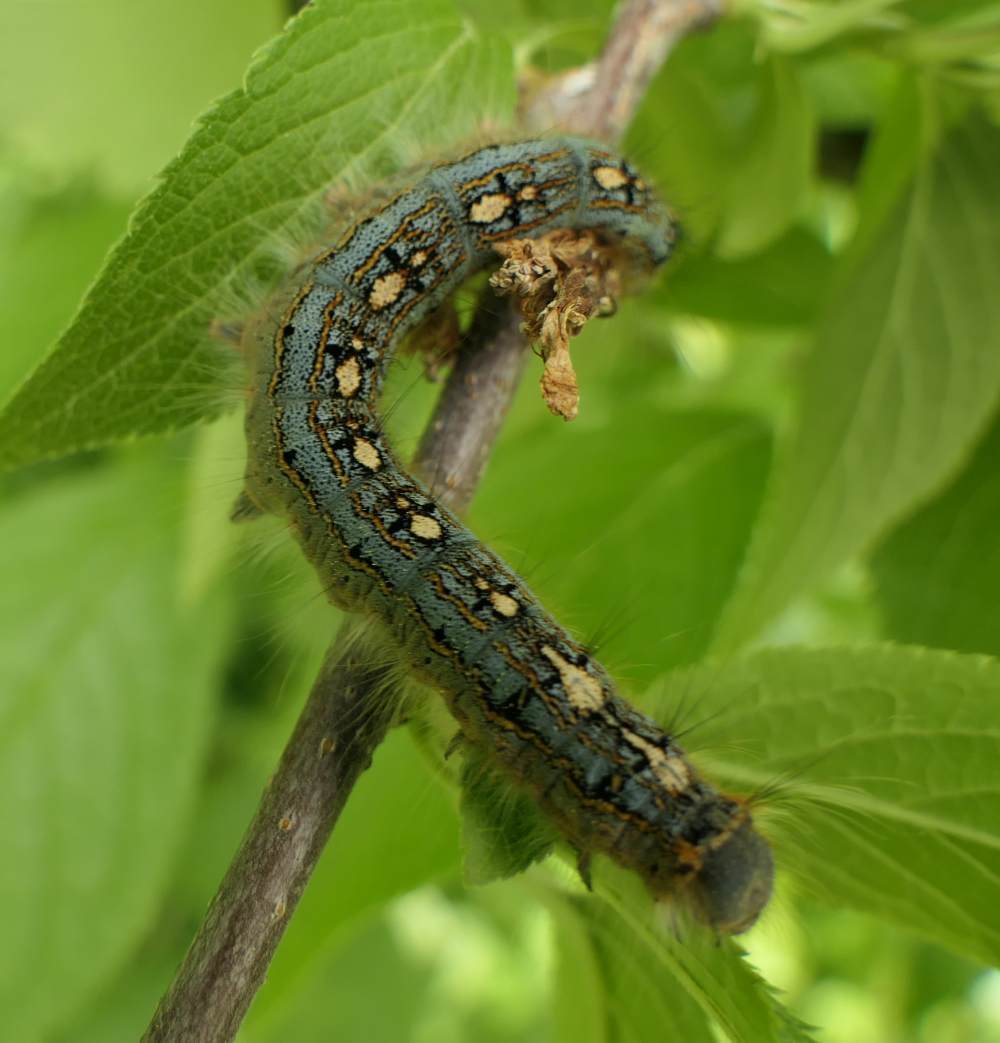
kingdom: Animalia
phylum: Arthropoda
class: Insecta
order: Lepidoptera
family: Lasiocampidae
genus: Malacosoma
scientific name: Malacosoma disstria
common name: Forest tent caterpillar
